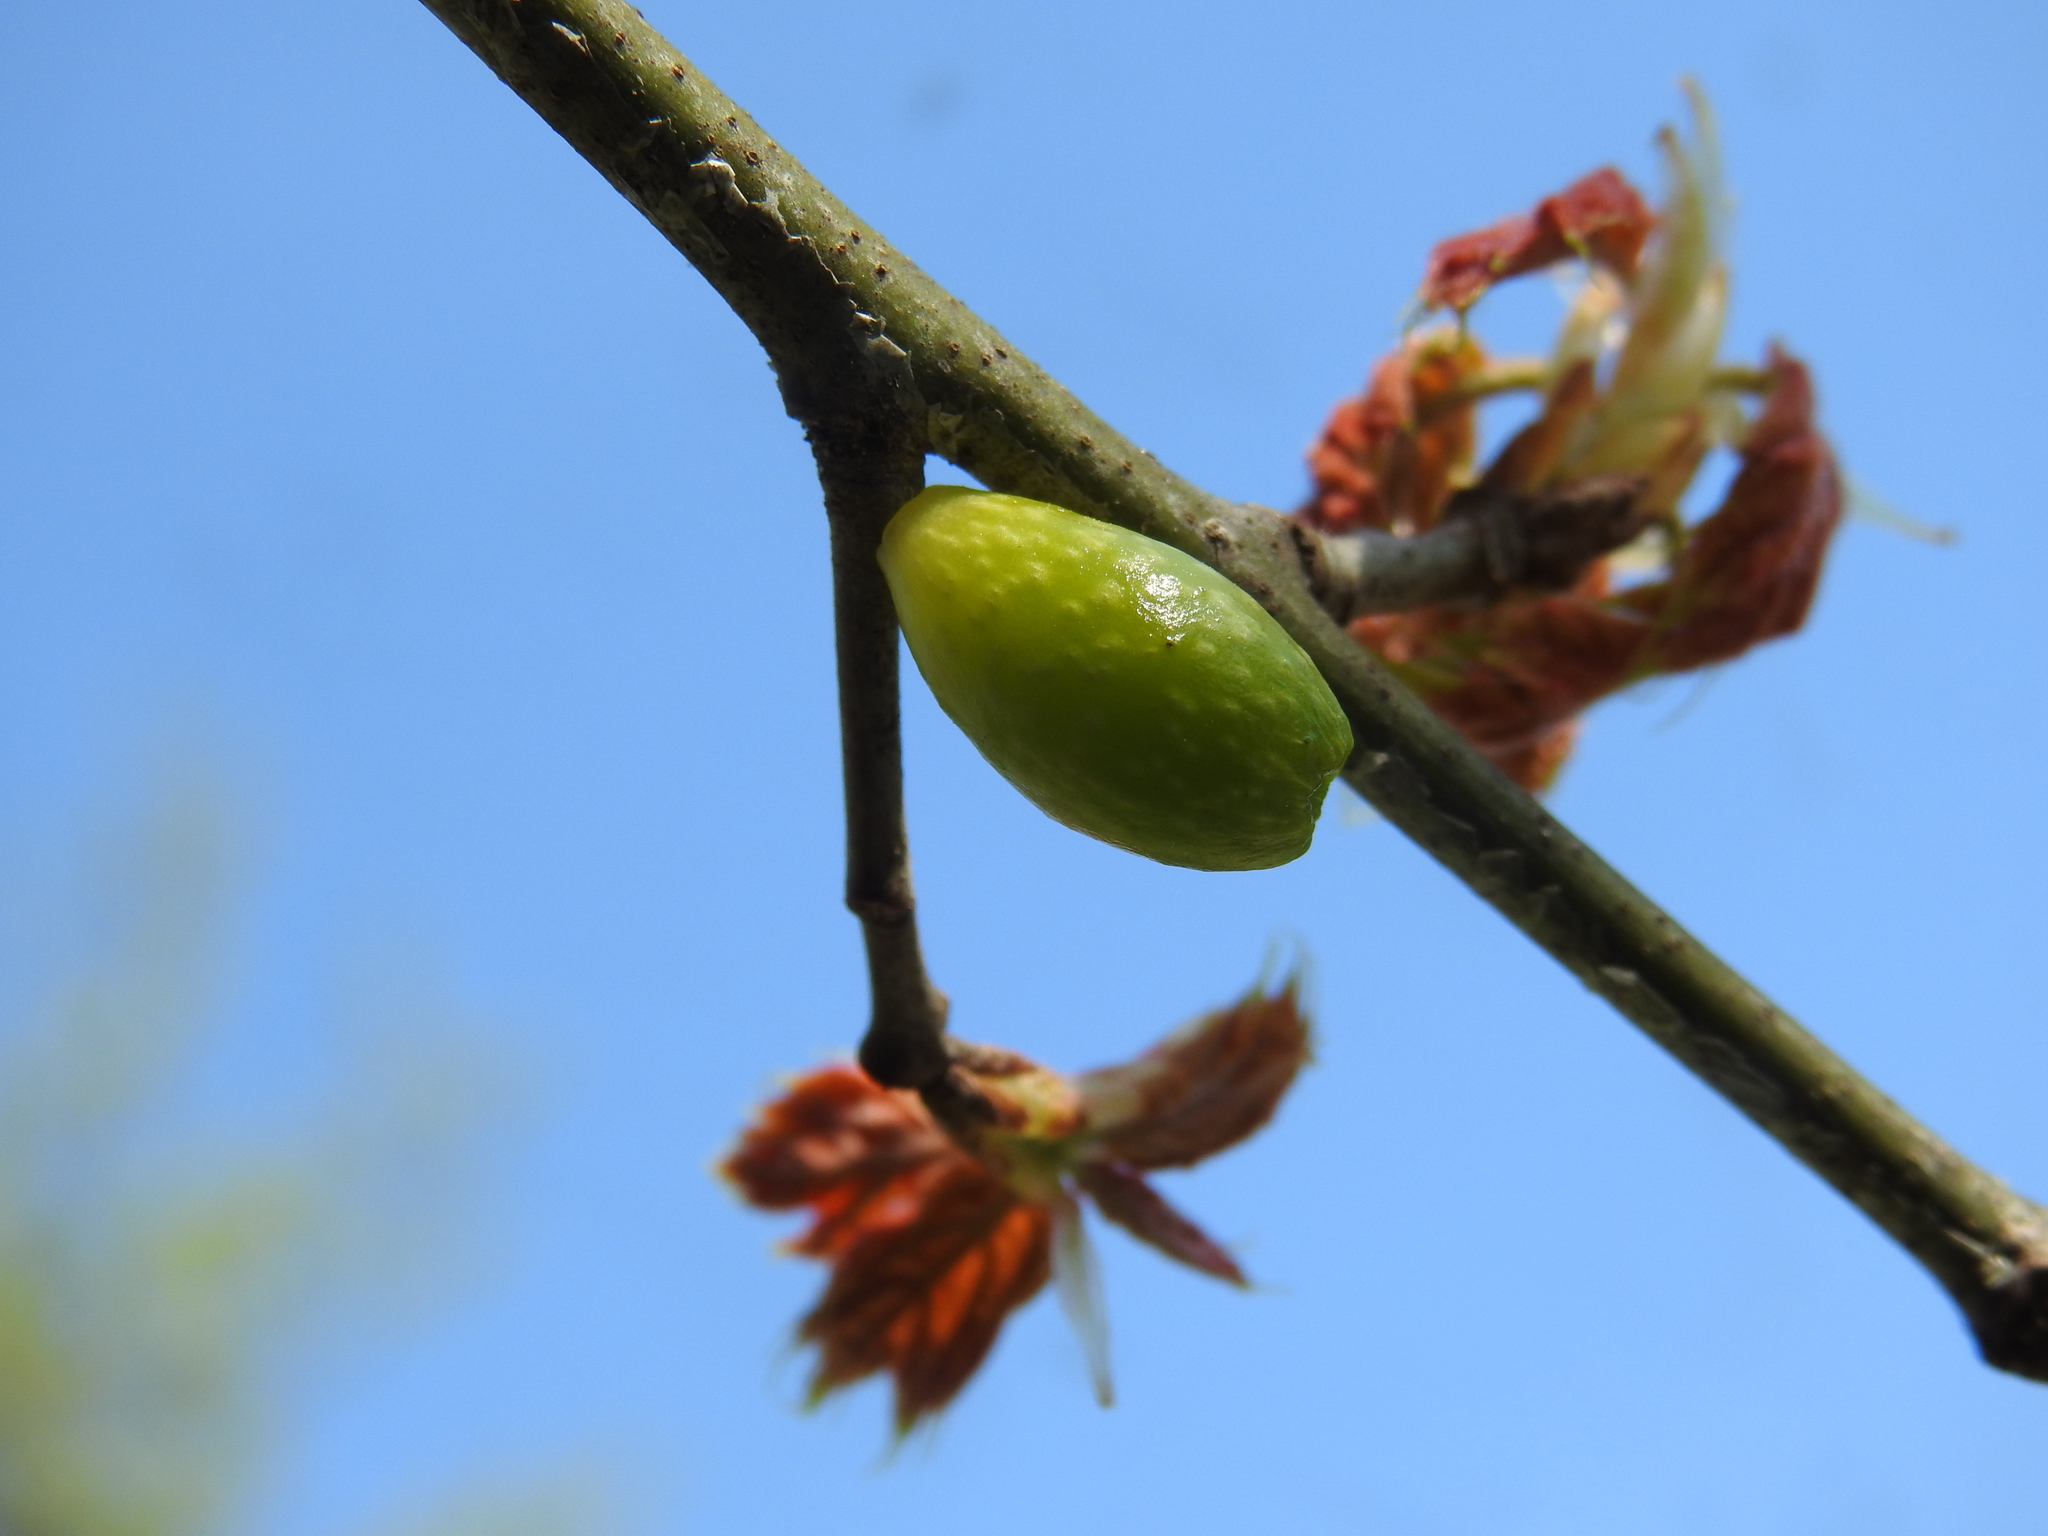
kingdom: Animalia
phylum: Arthropoda
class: Insecta
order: Hymenoptera
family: Cynipidae
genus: Amphibolips
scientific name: Amphibolips
